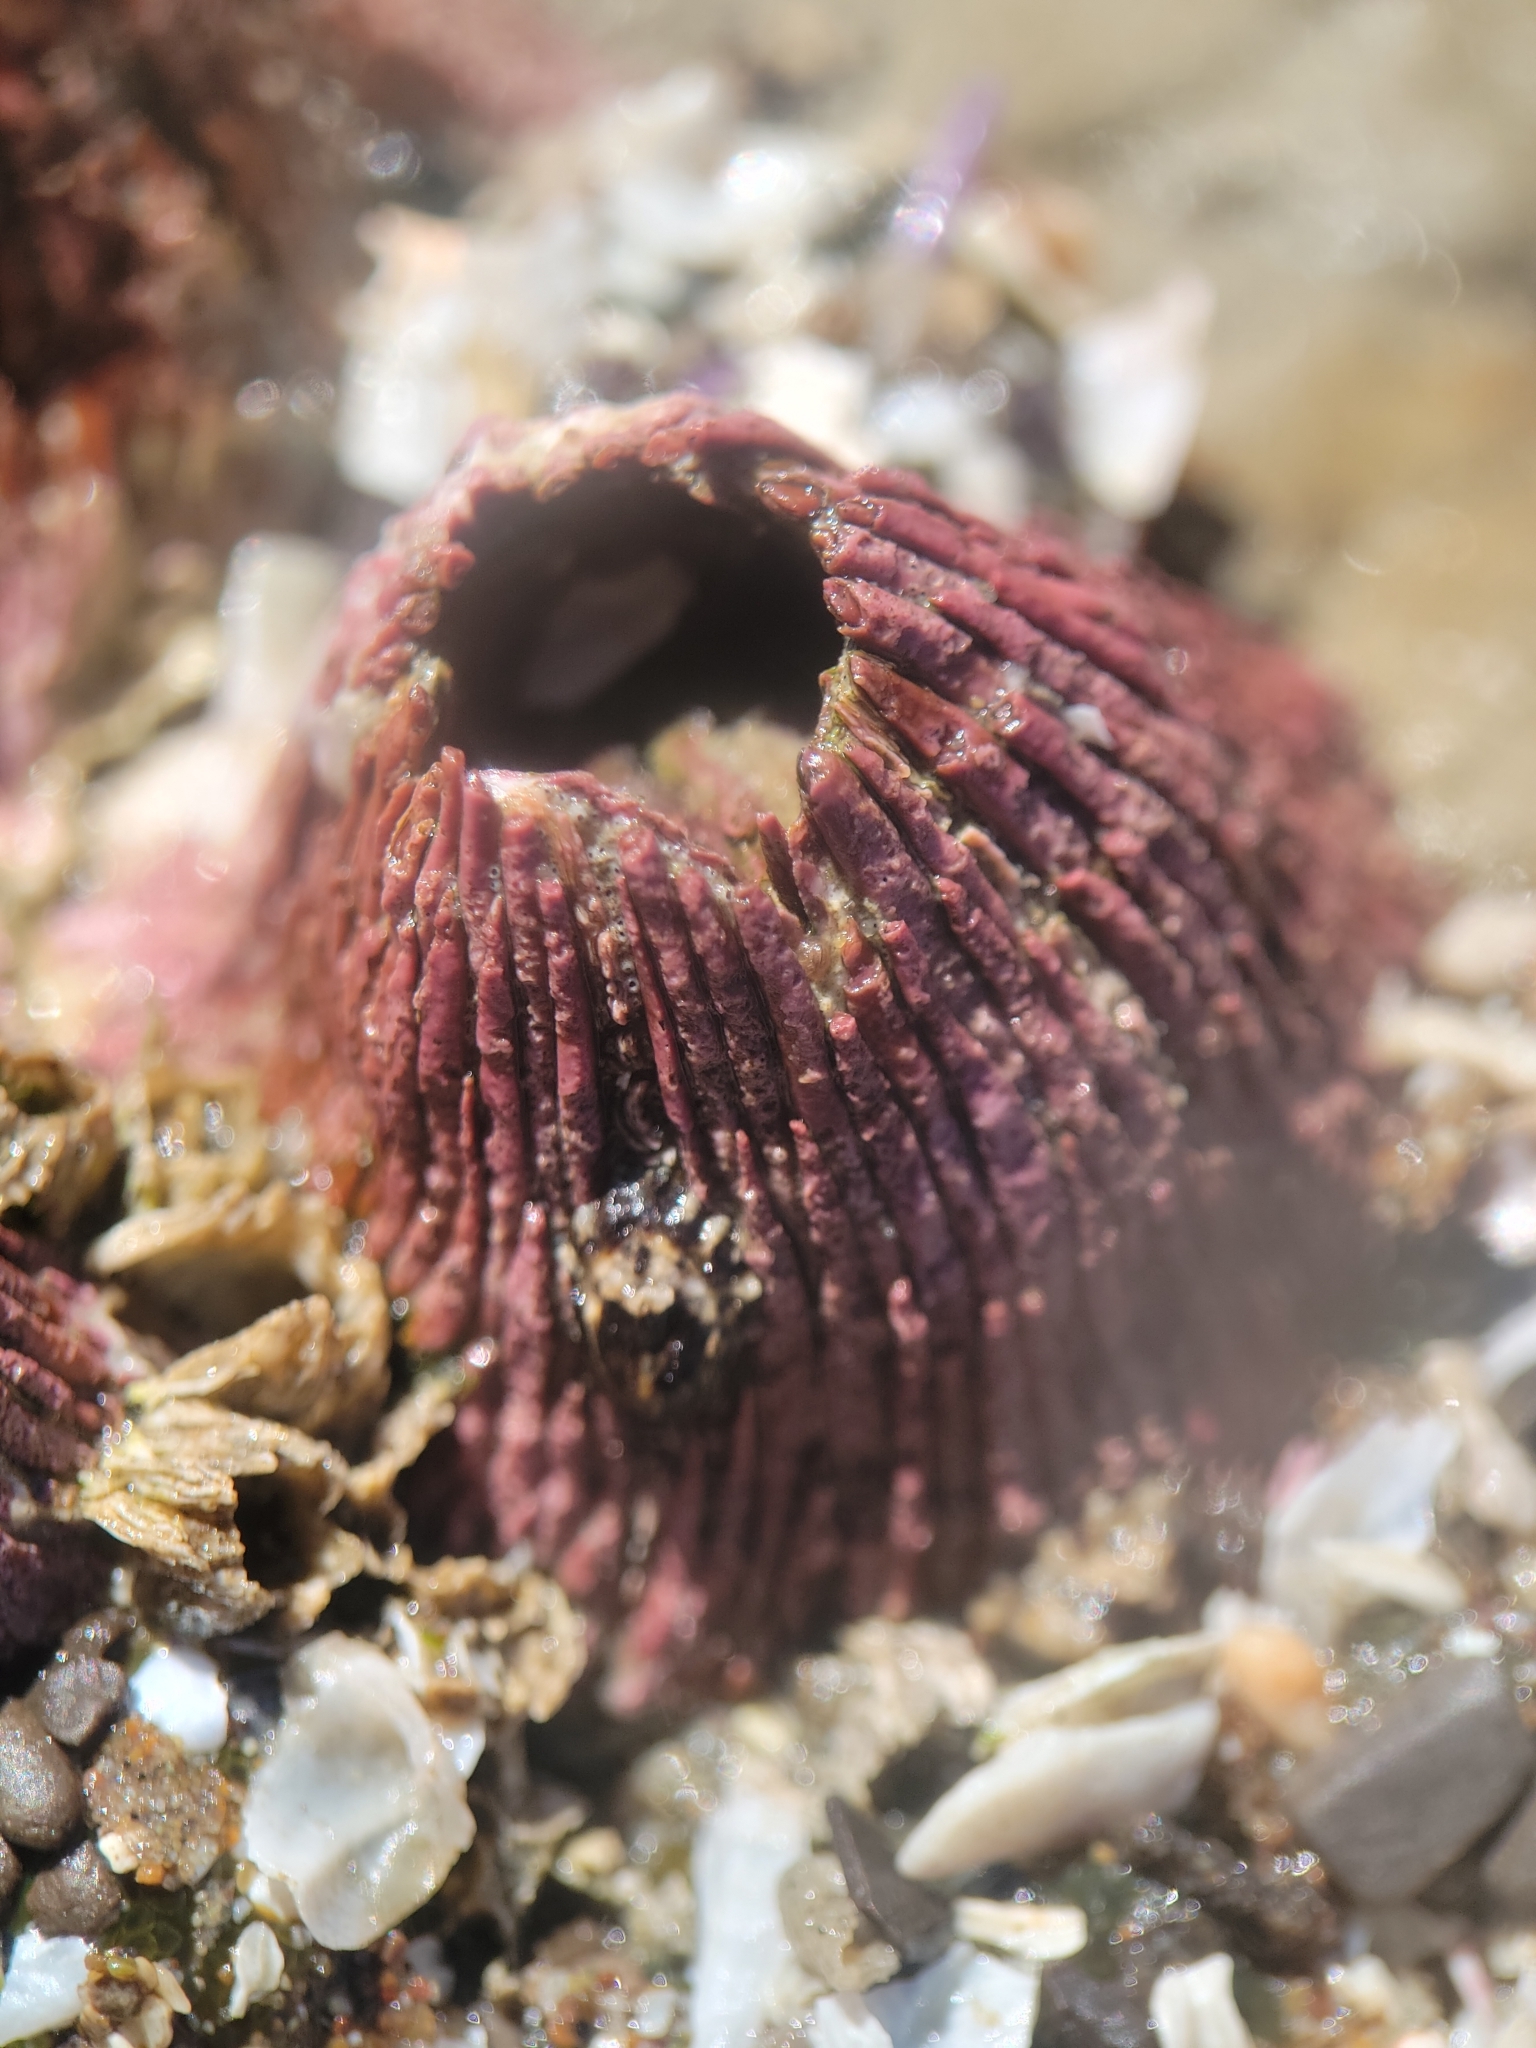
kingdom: Animalia
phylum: Arthropoda
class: Maxillopoda
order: Sessilia
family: Tetraclitidae
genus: Tetraclita
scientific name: Tetraclita rubescens
